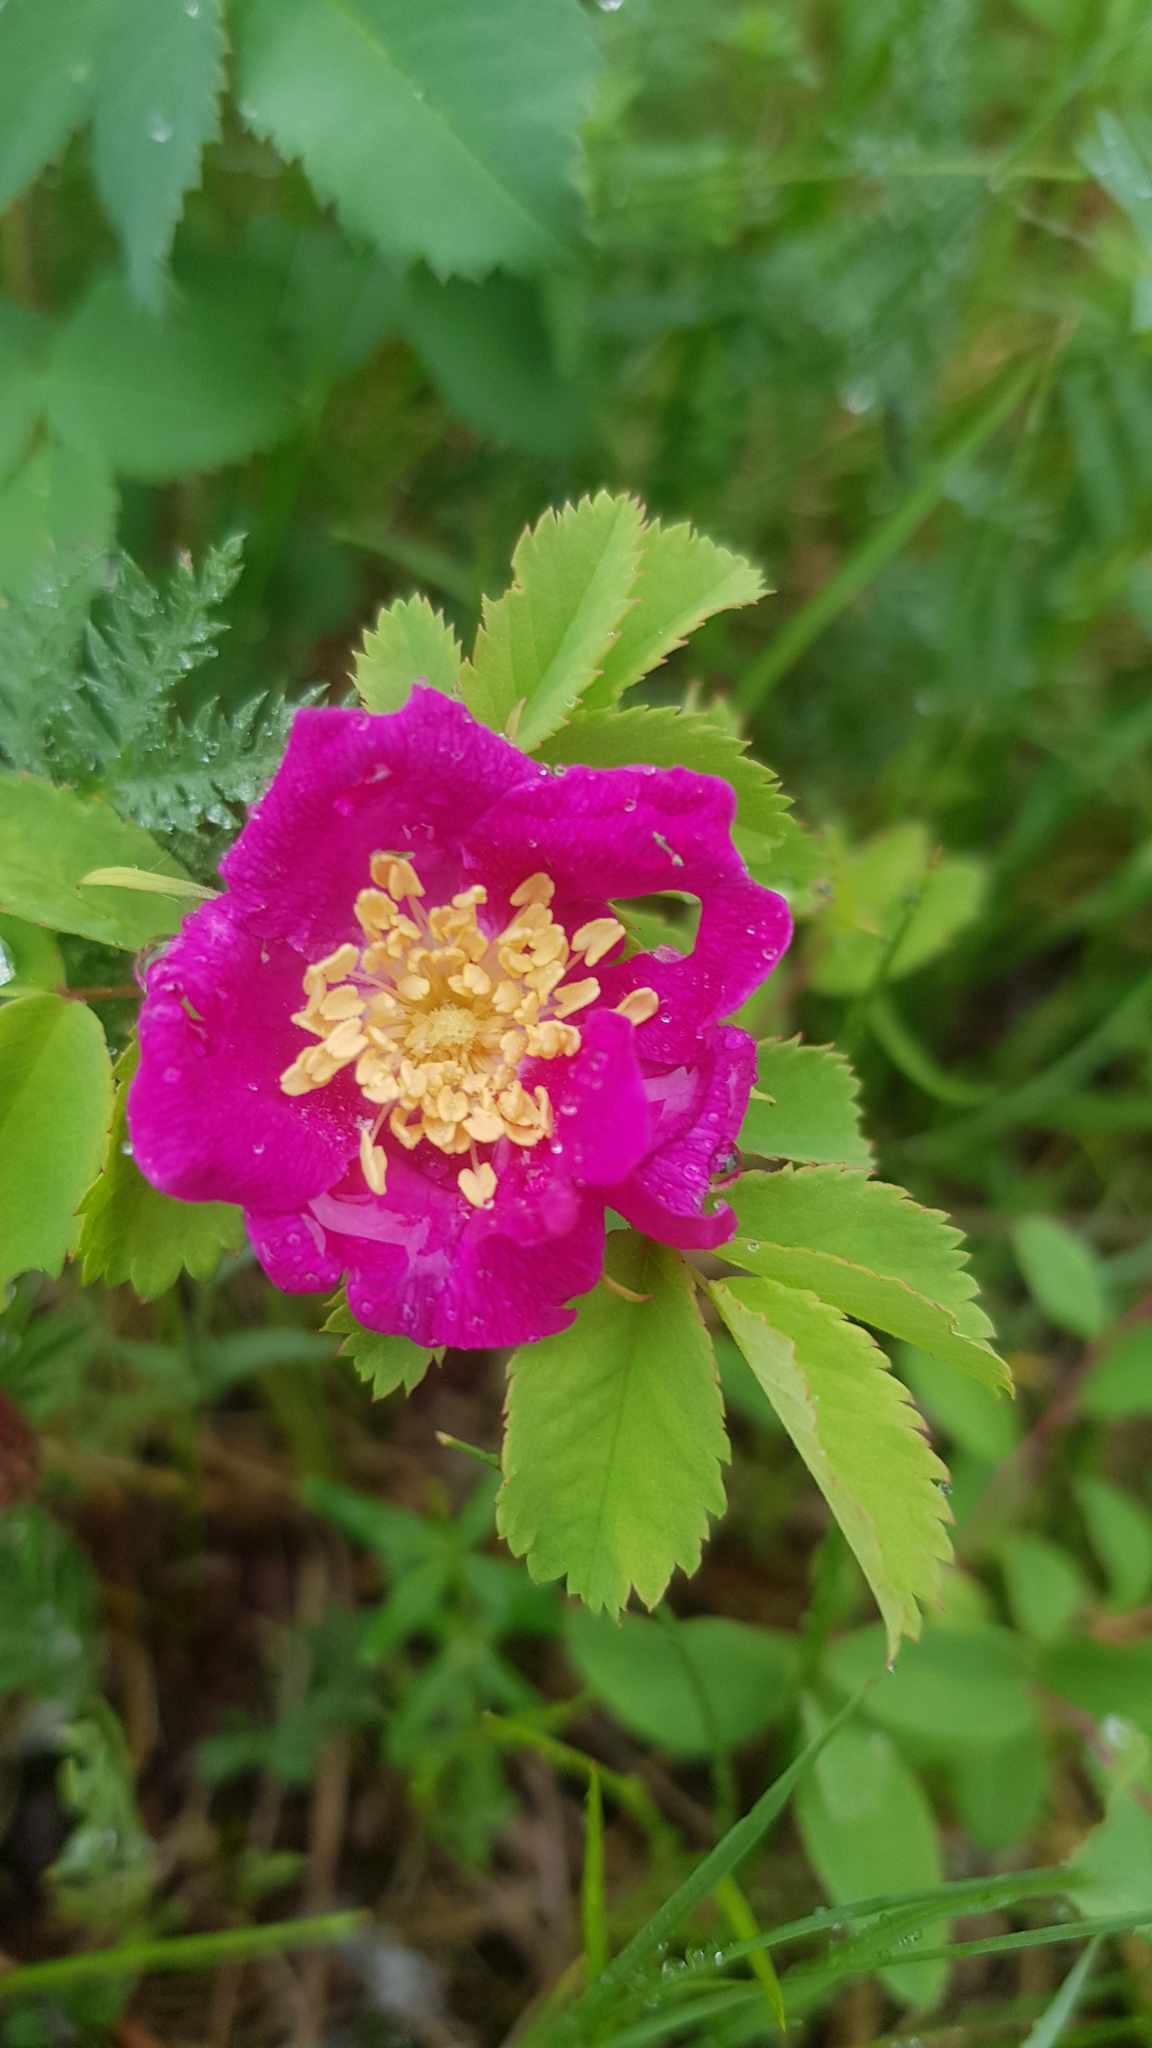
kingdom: Plantae
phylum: Tracheophyta
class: Magnoliopsida
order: Rosales
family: Rosaceae
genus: Rosa
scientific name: Rosa acicularis
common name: Prickly rose
